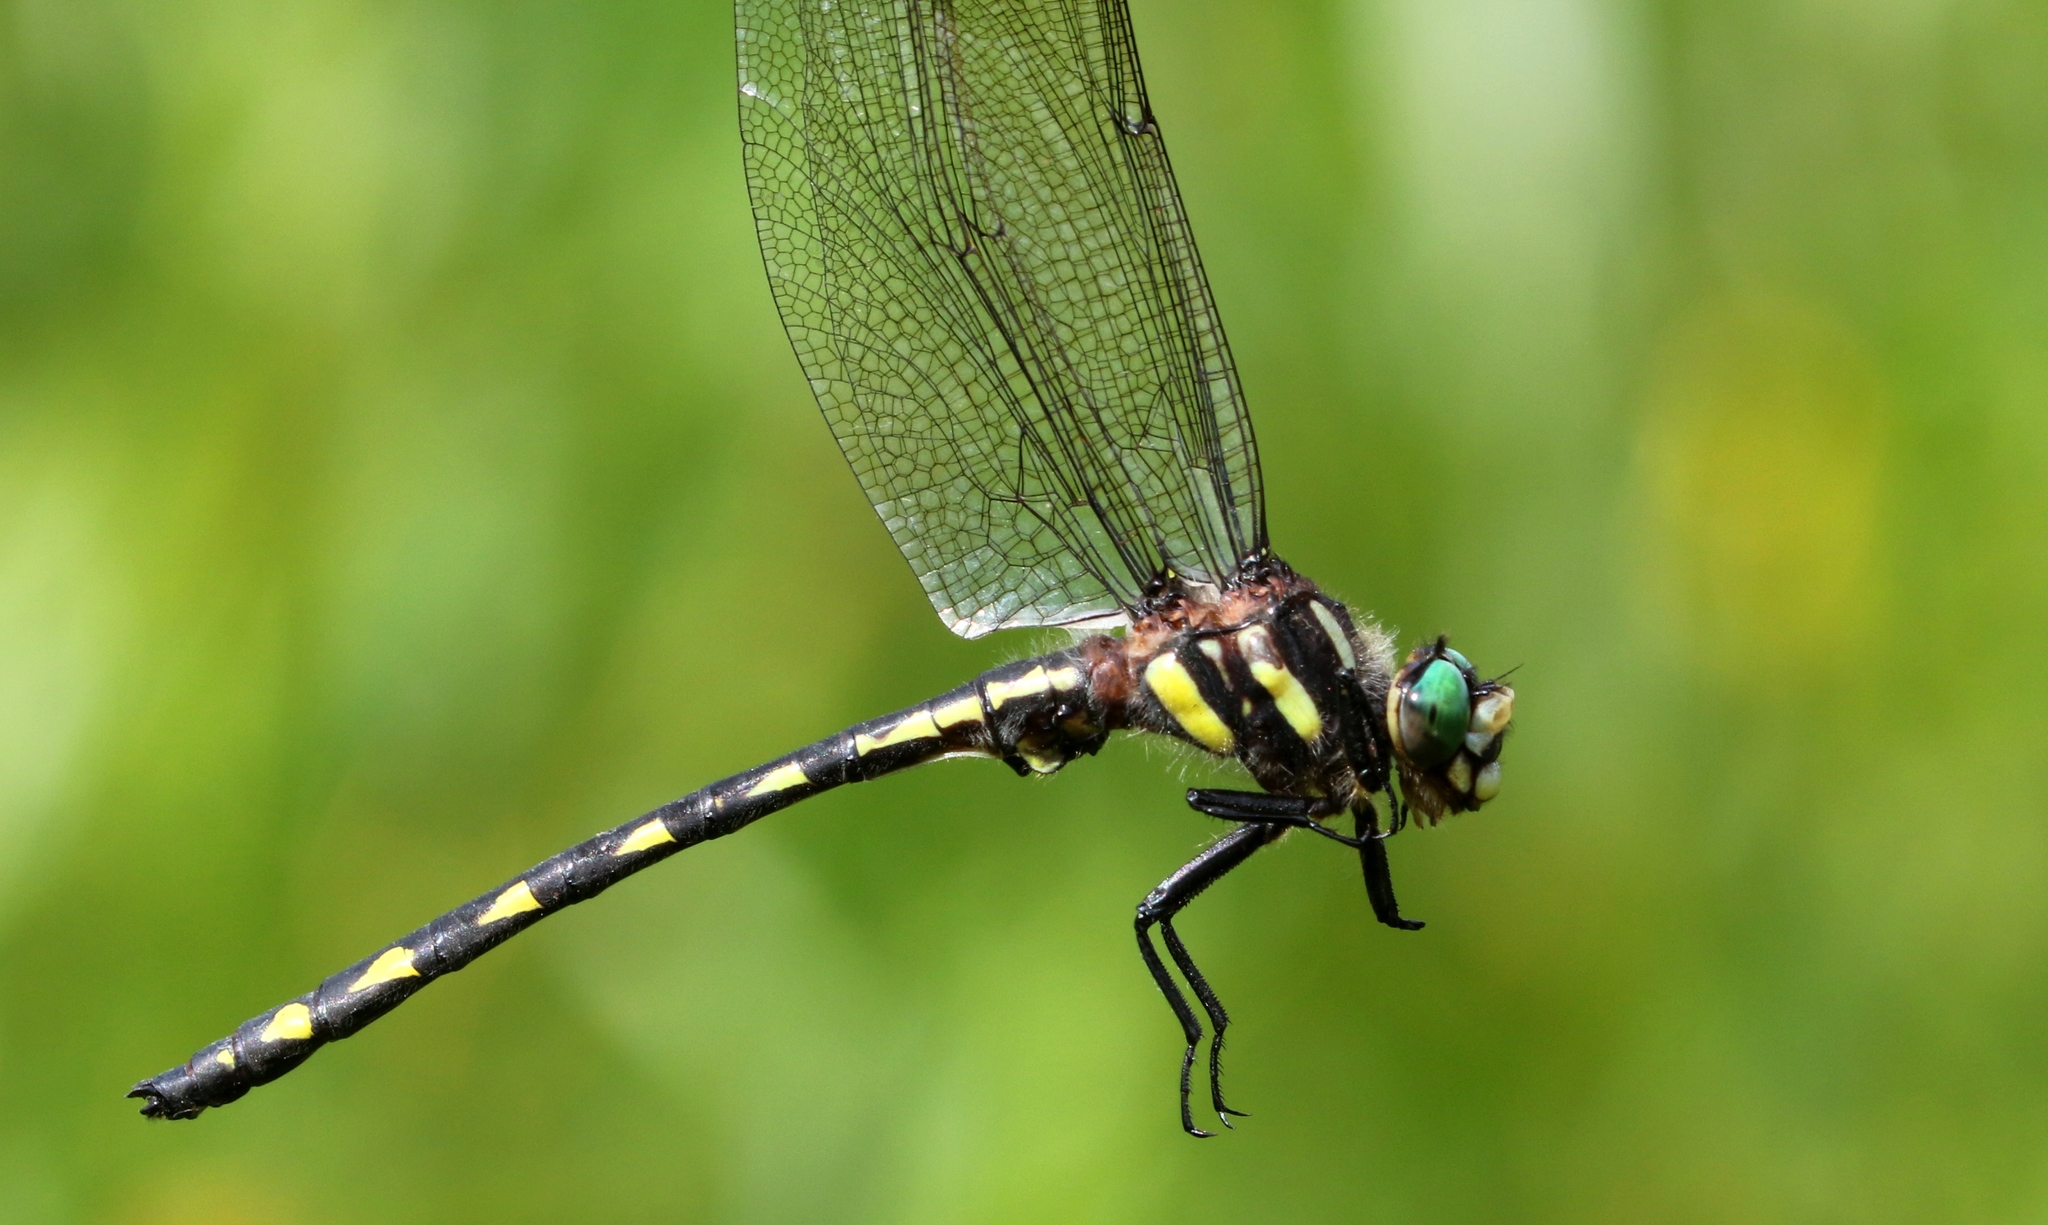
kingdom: Animalia
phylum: Arthropoda
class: Insecta
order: Odonata
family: Cordulegastridae
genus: Cordulegaster
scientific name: Cordulegaster diastatops
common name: Delta-spotted spiketail
